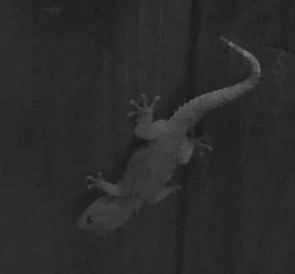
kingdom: Animalia
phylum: Chordata
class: Squamata
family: Gekkonidae
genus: Hemidactylus
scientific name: Hemidactylus mabouia
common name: House gecko
